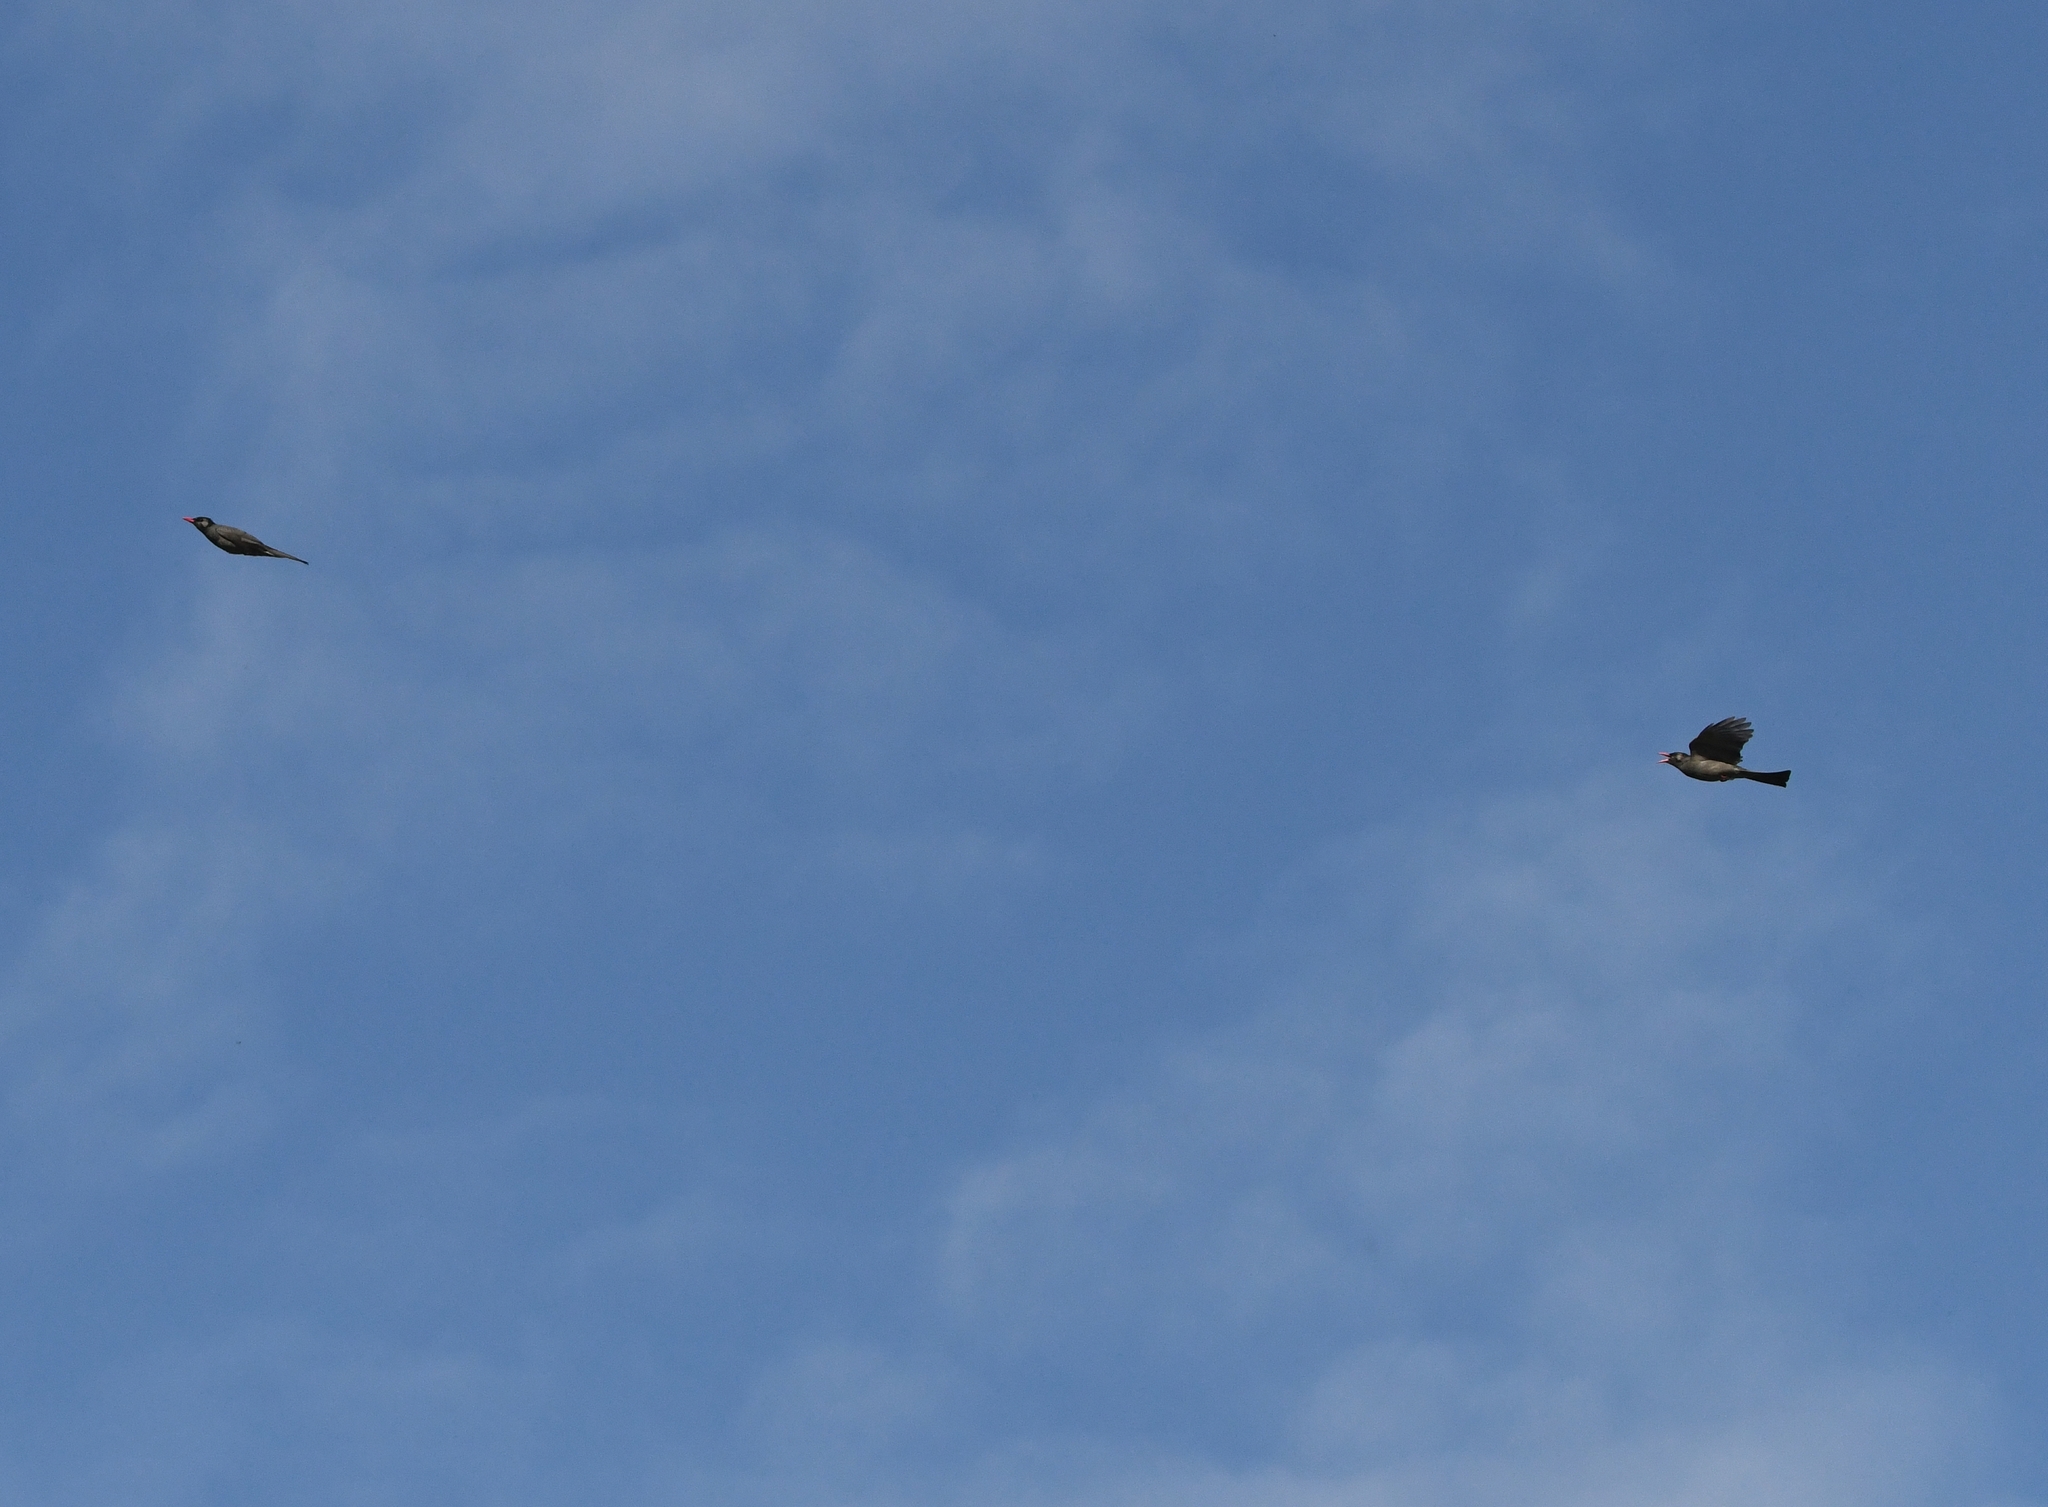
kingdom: Animalia
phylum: Chordata
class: Aves
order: Passeriformes
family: Pycnonotidae
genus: Hypsipetes
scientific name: Hypsipetes leucocephalus
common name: Black bulbul
